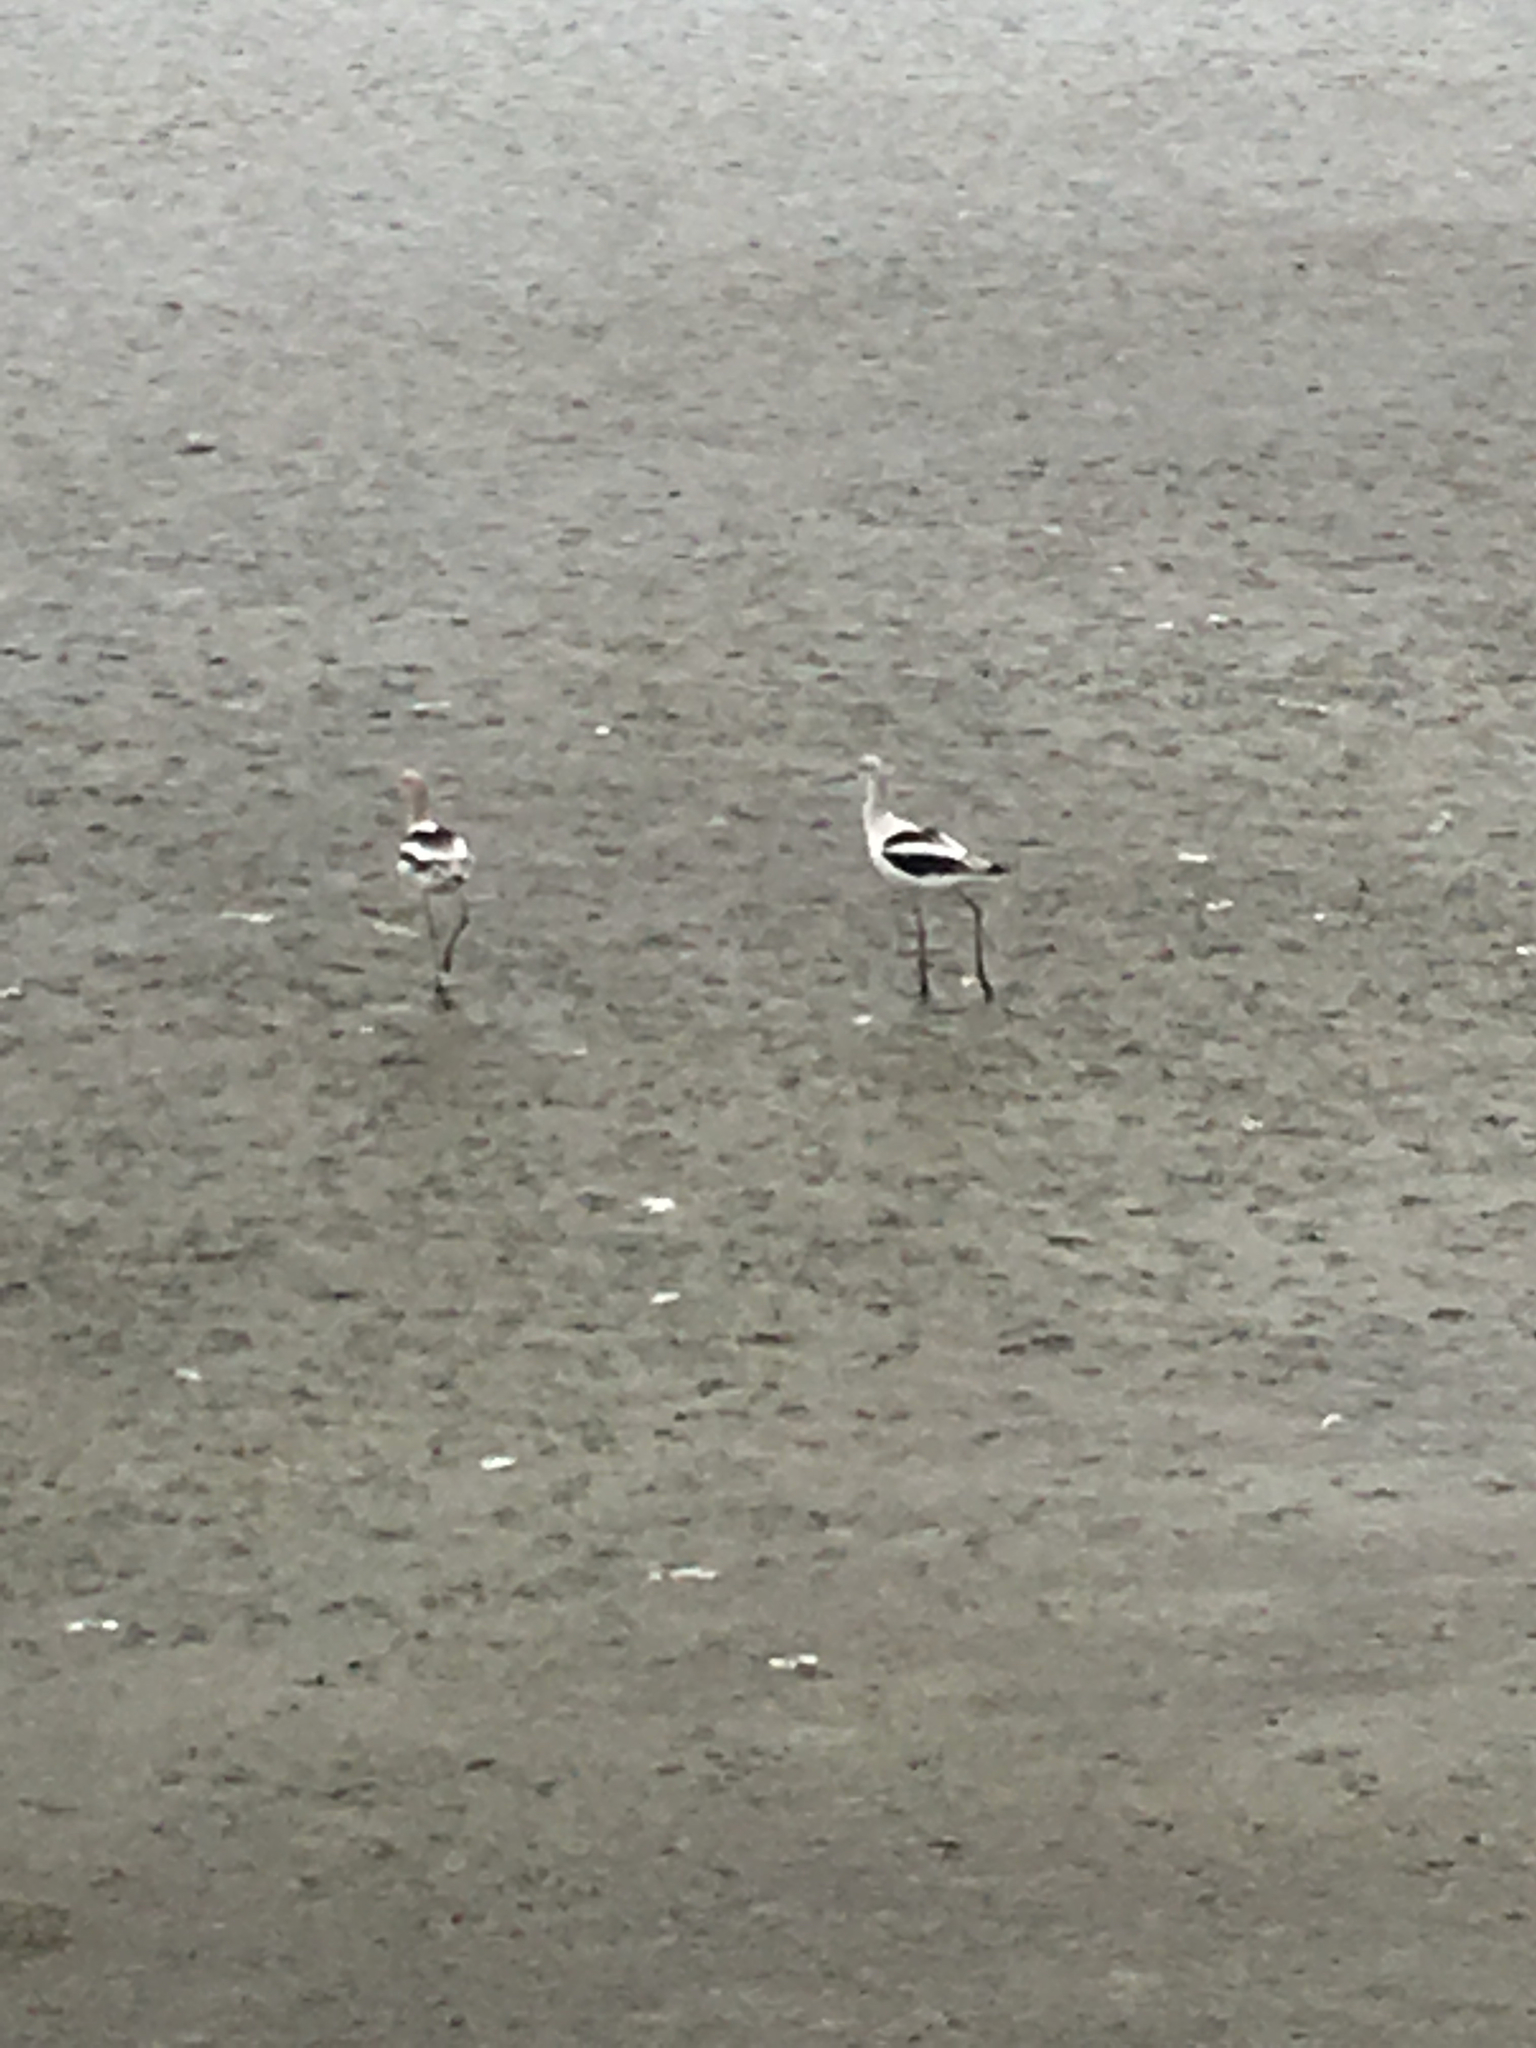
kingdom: Animalia
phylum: Chordata
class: Aves
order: Charadriiformes
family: Recurvirostridae
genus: Recurvirostra
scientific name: Recurvirostra americana
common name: American avocet
